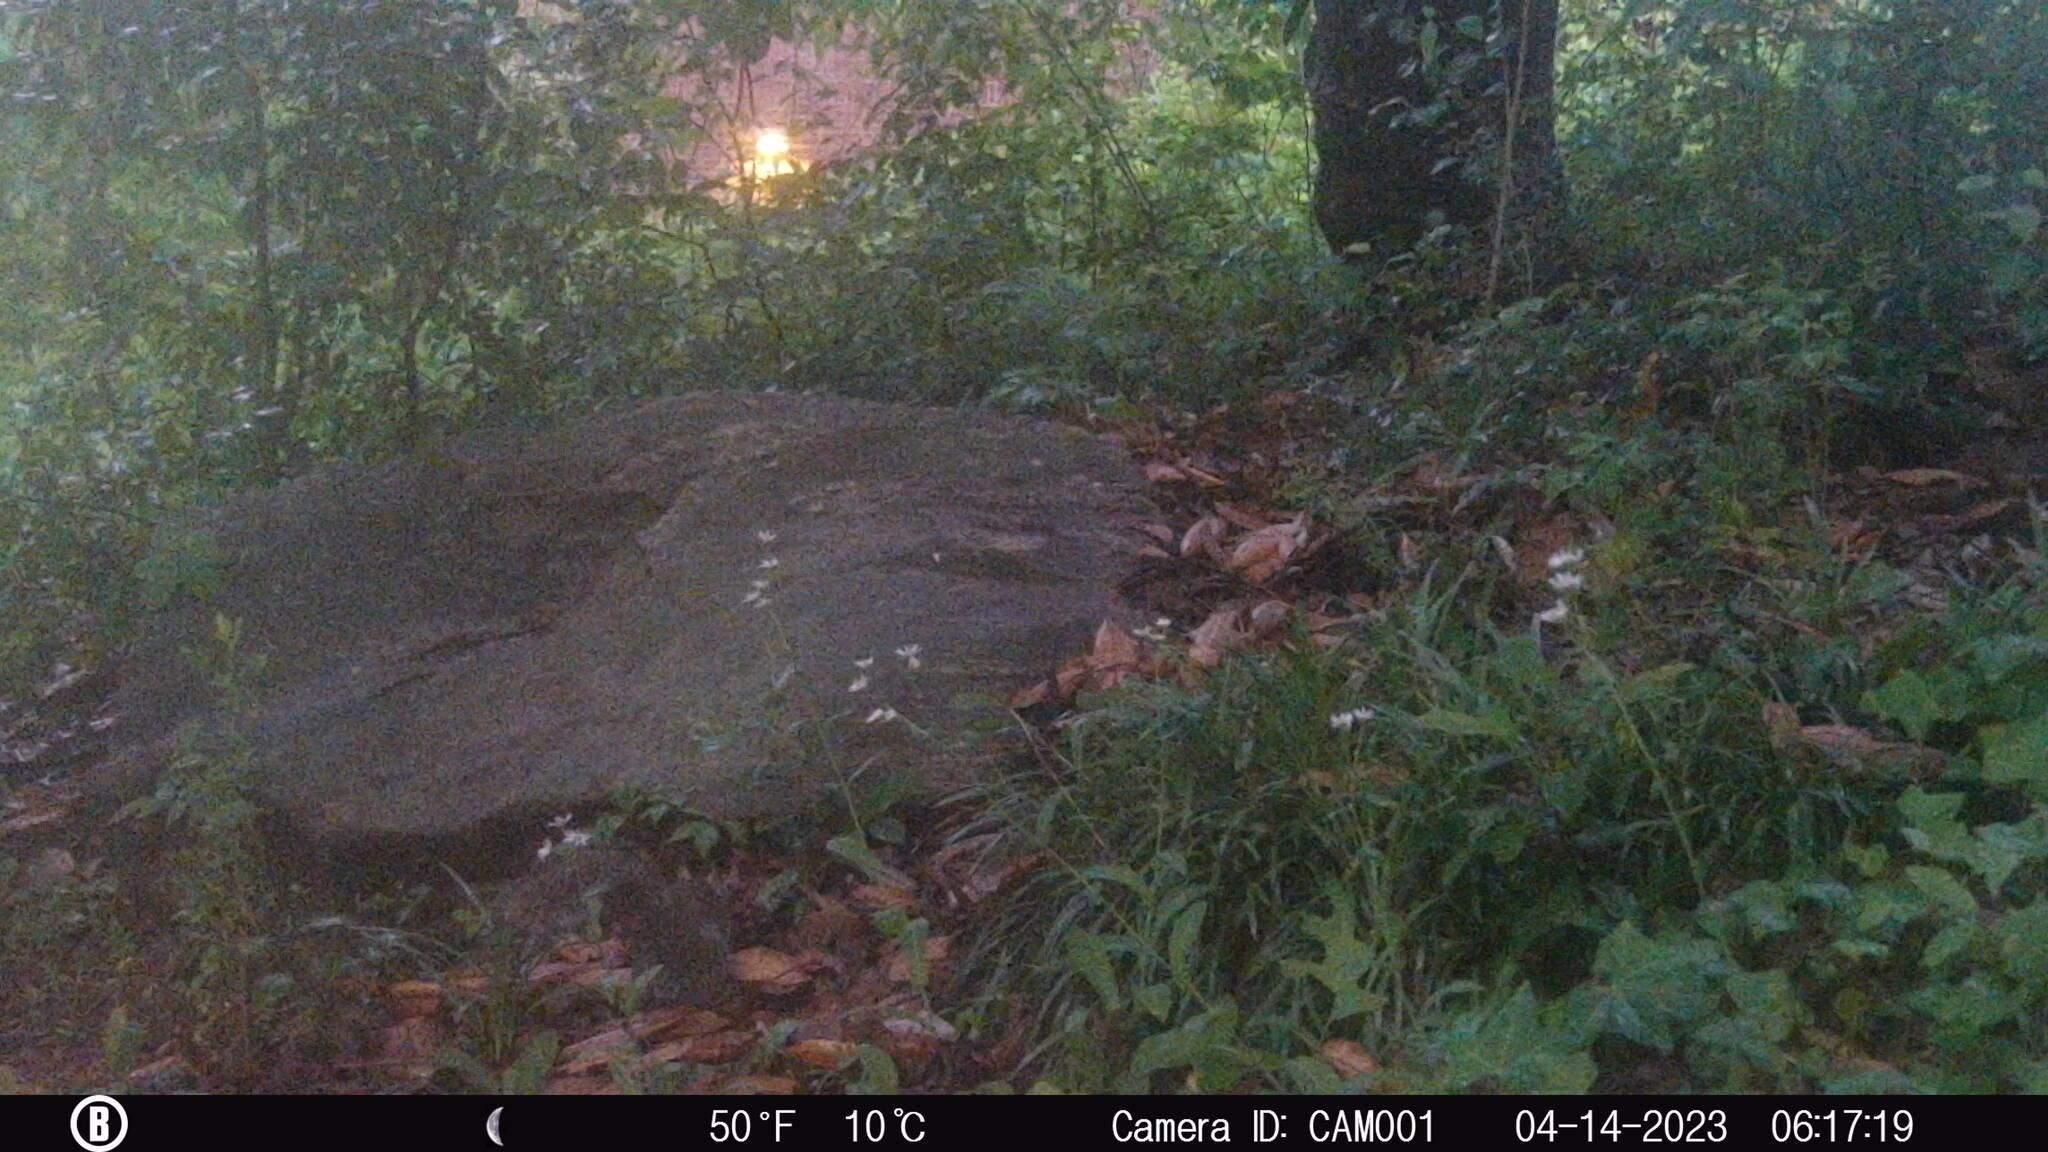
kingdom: Animalia
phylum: Chordata
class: Mammalia
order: Rodentia
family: Sciuridae
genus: Sciurus
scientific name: Sciurus carolinensis
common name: Eastern gray squirrel
